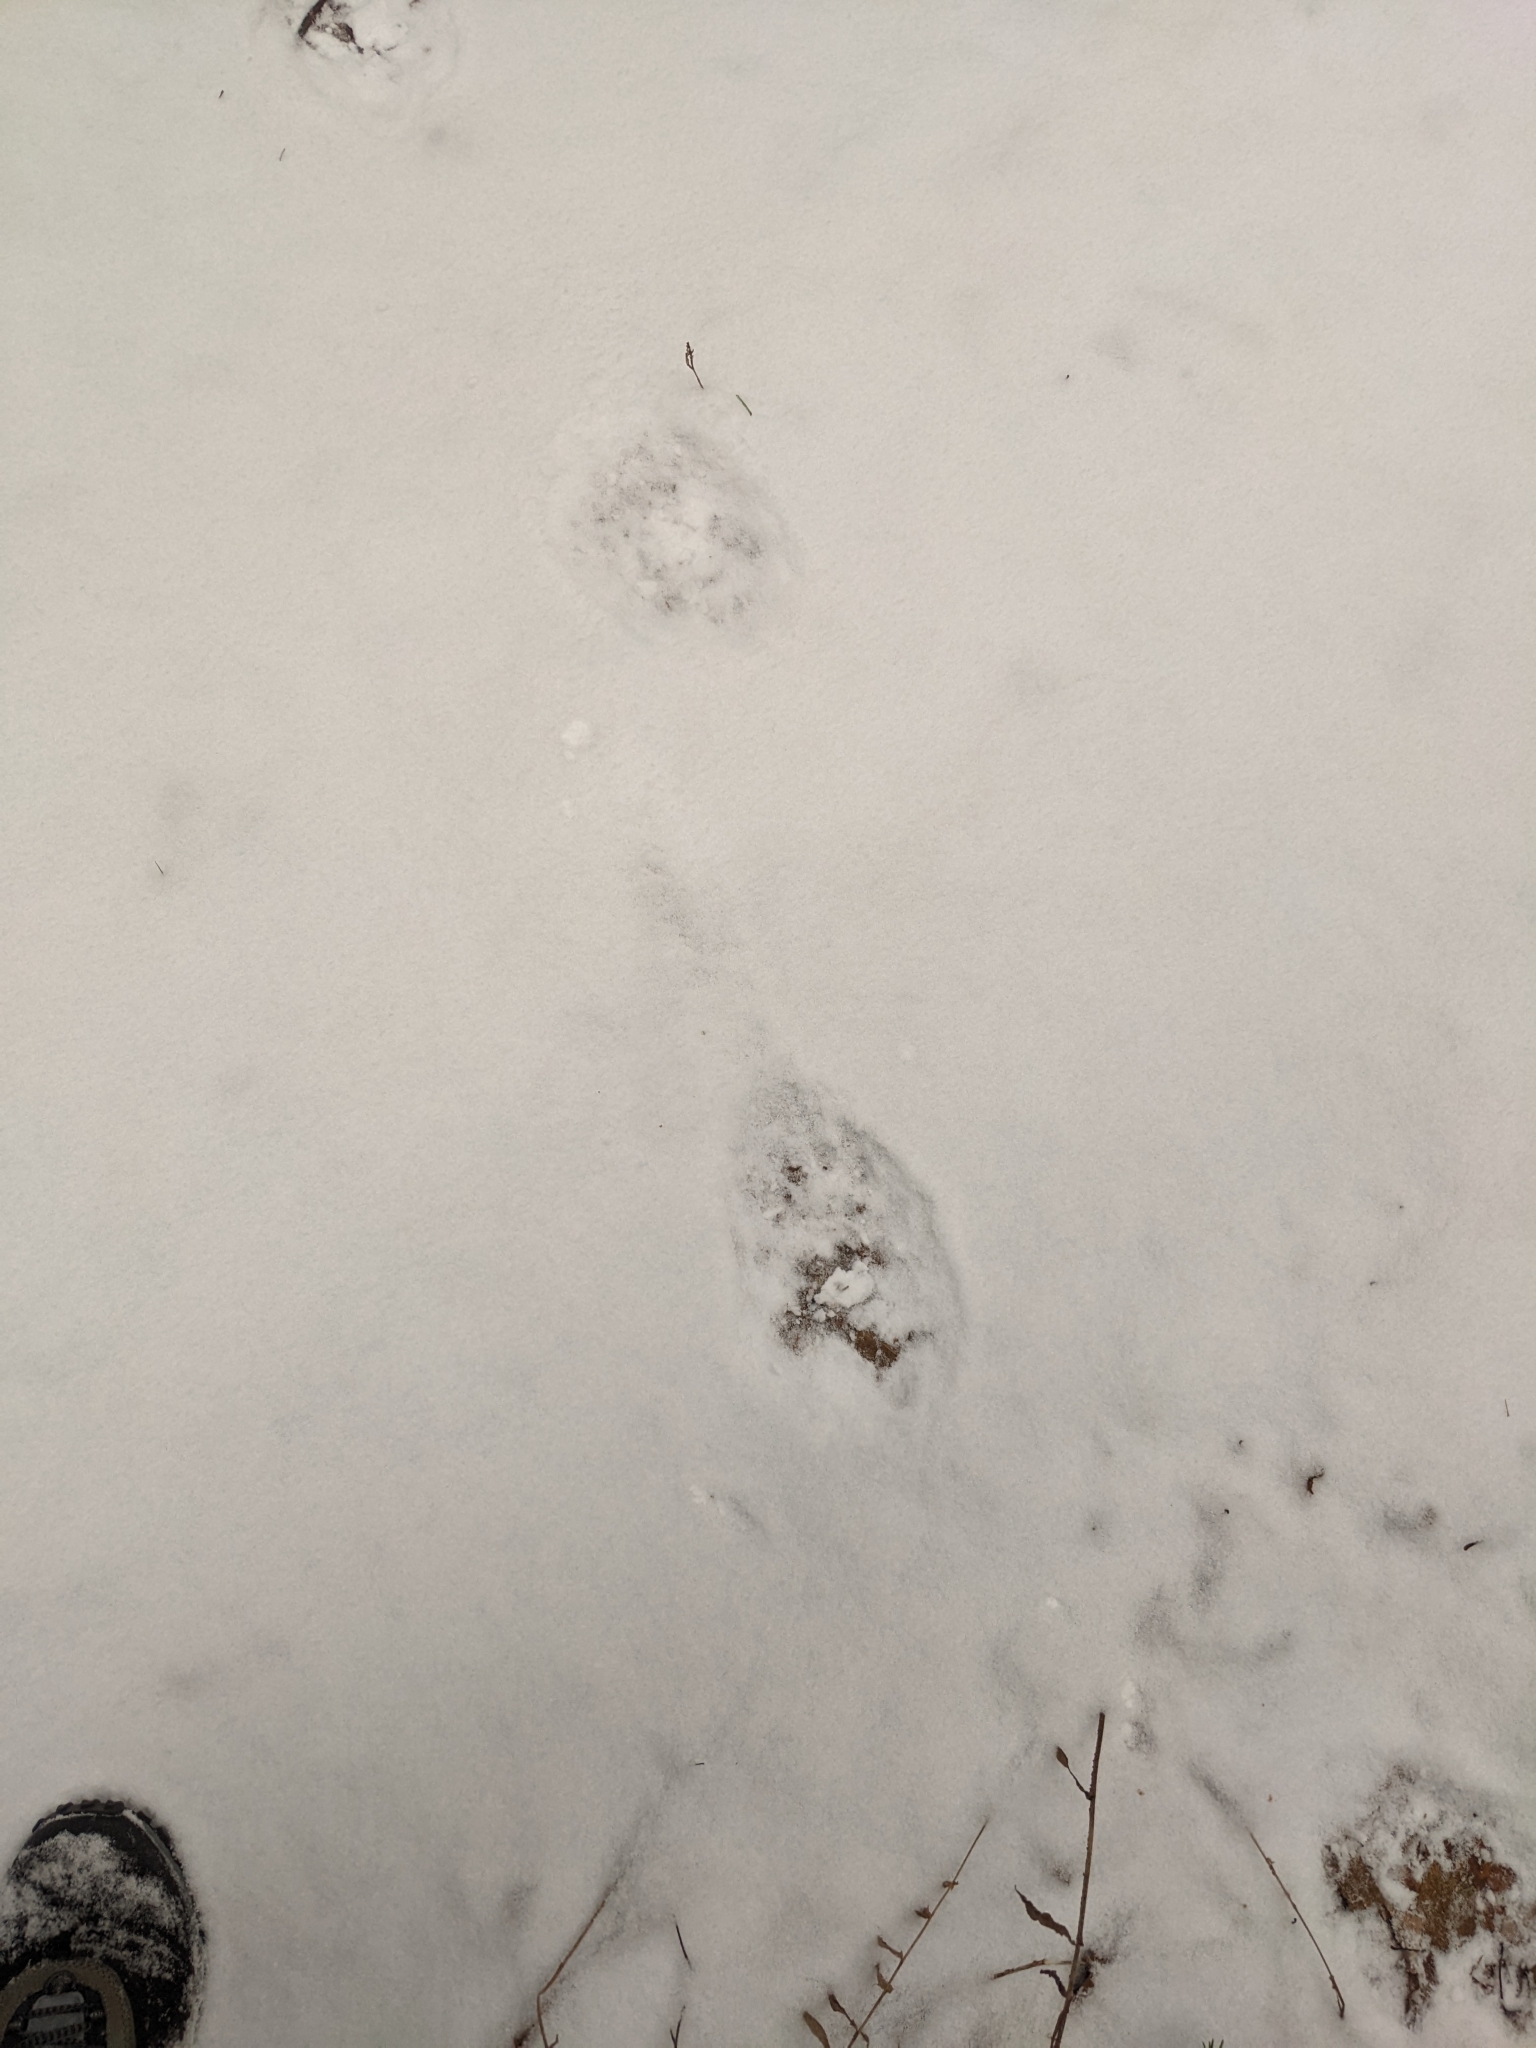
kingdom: Animalia
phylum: Chordata
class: Mammalia
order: Carnivora
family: Ursidae
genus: Ursus
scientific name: Ursus americanus
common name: American black bear
